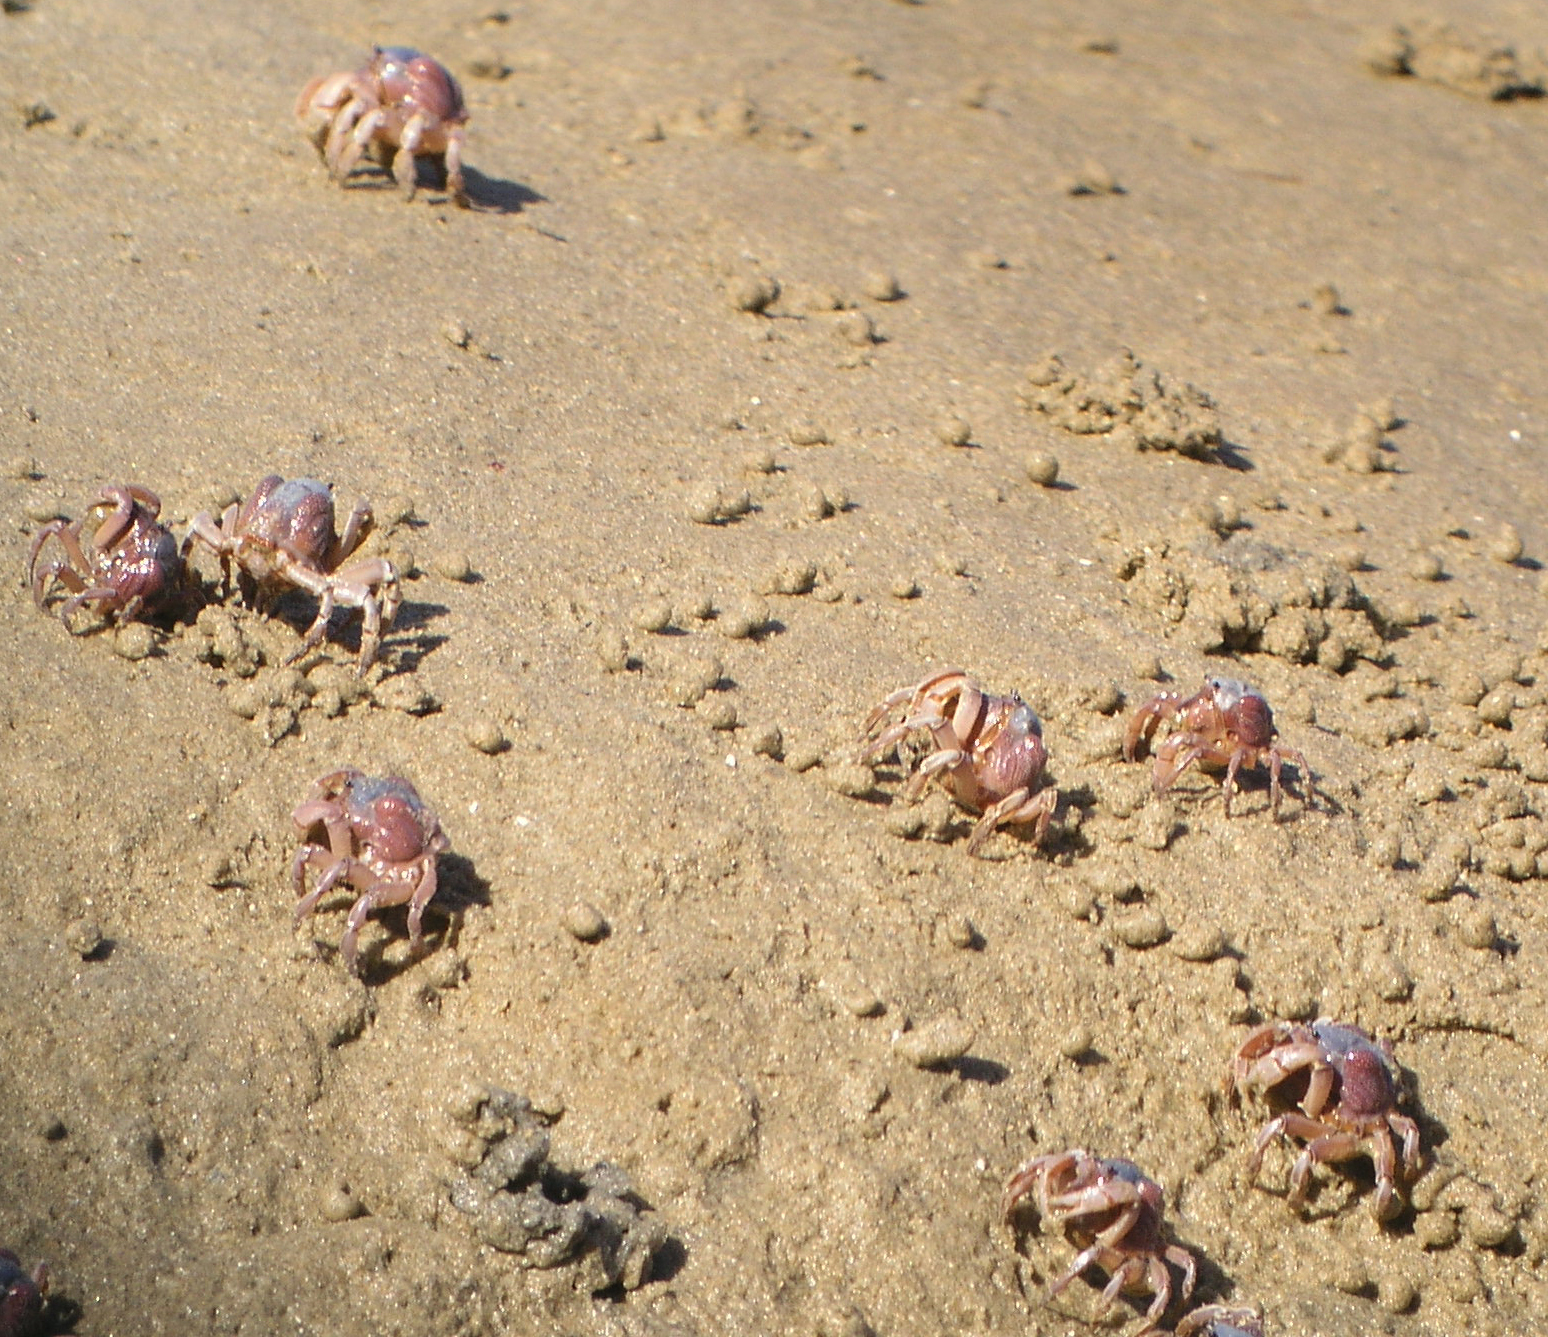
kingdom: Animalia
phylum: Arthropoda
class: Malacostraca
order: Decapoda
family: Mictyridae
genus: Mictyris
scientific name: Mictyris platycheles
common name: Dark blue soldier crab
